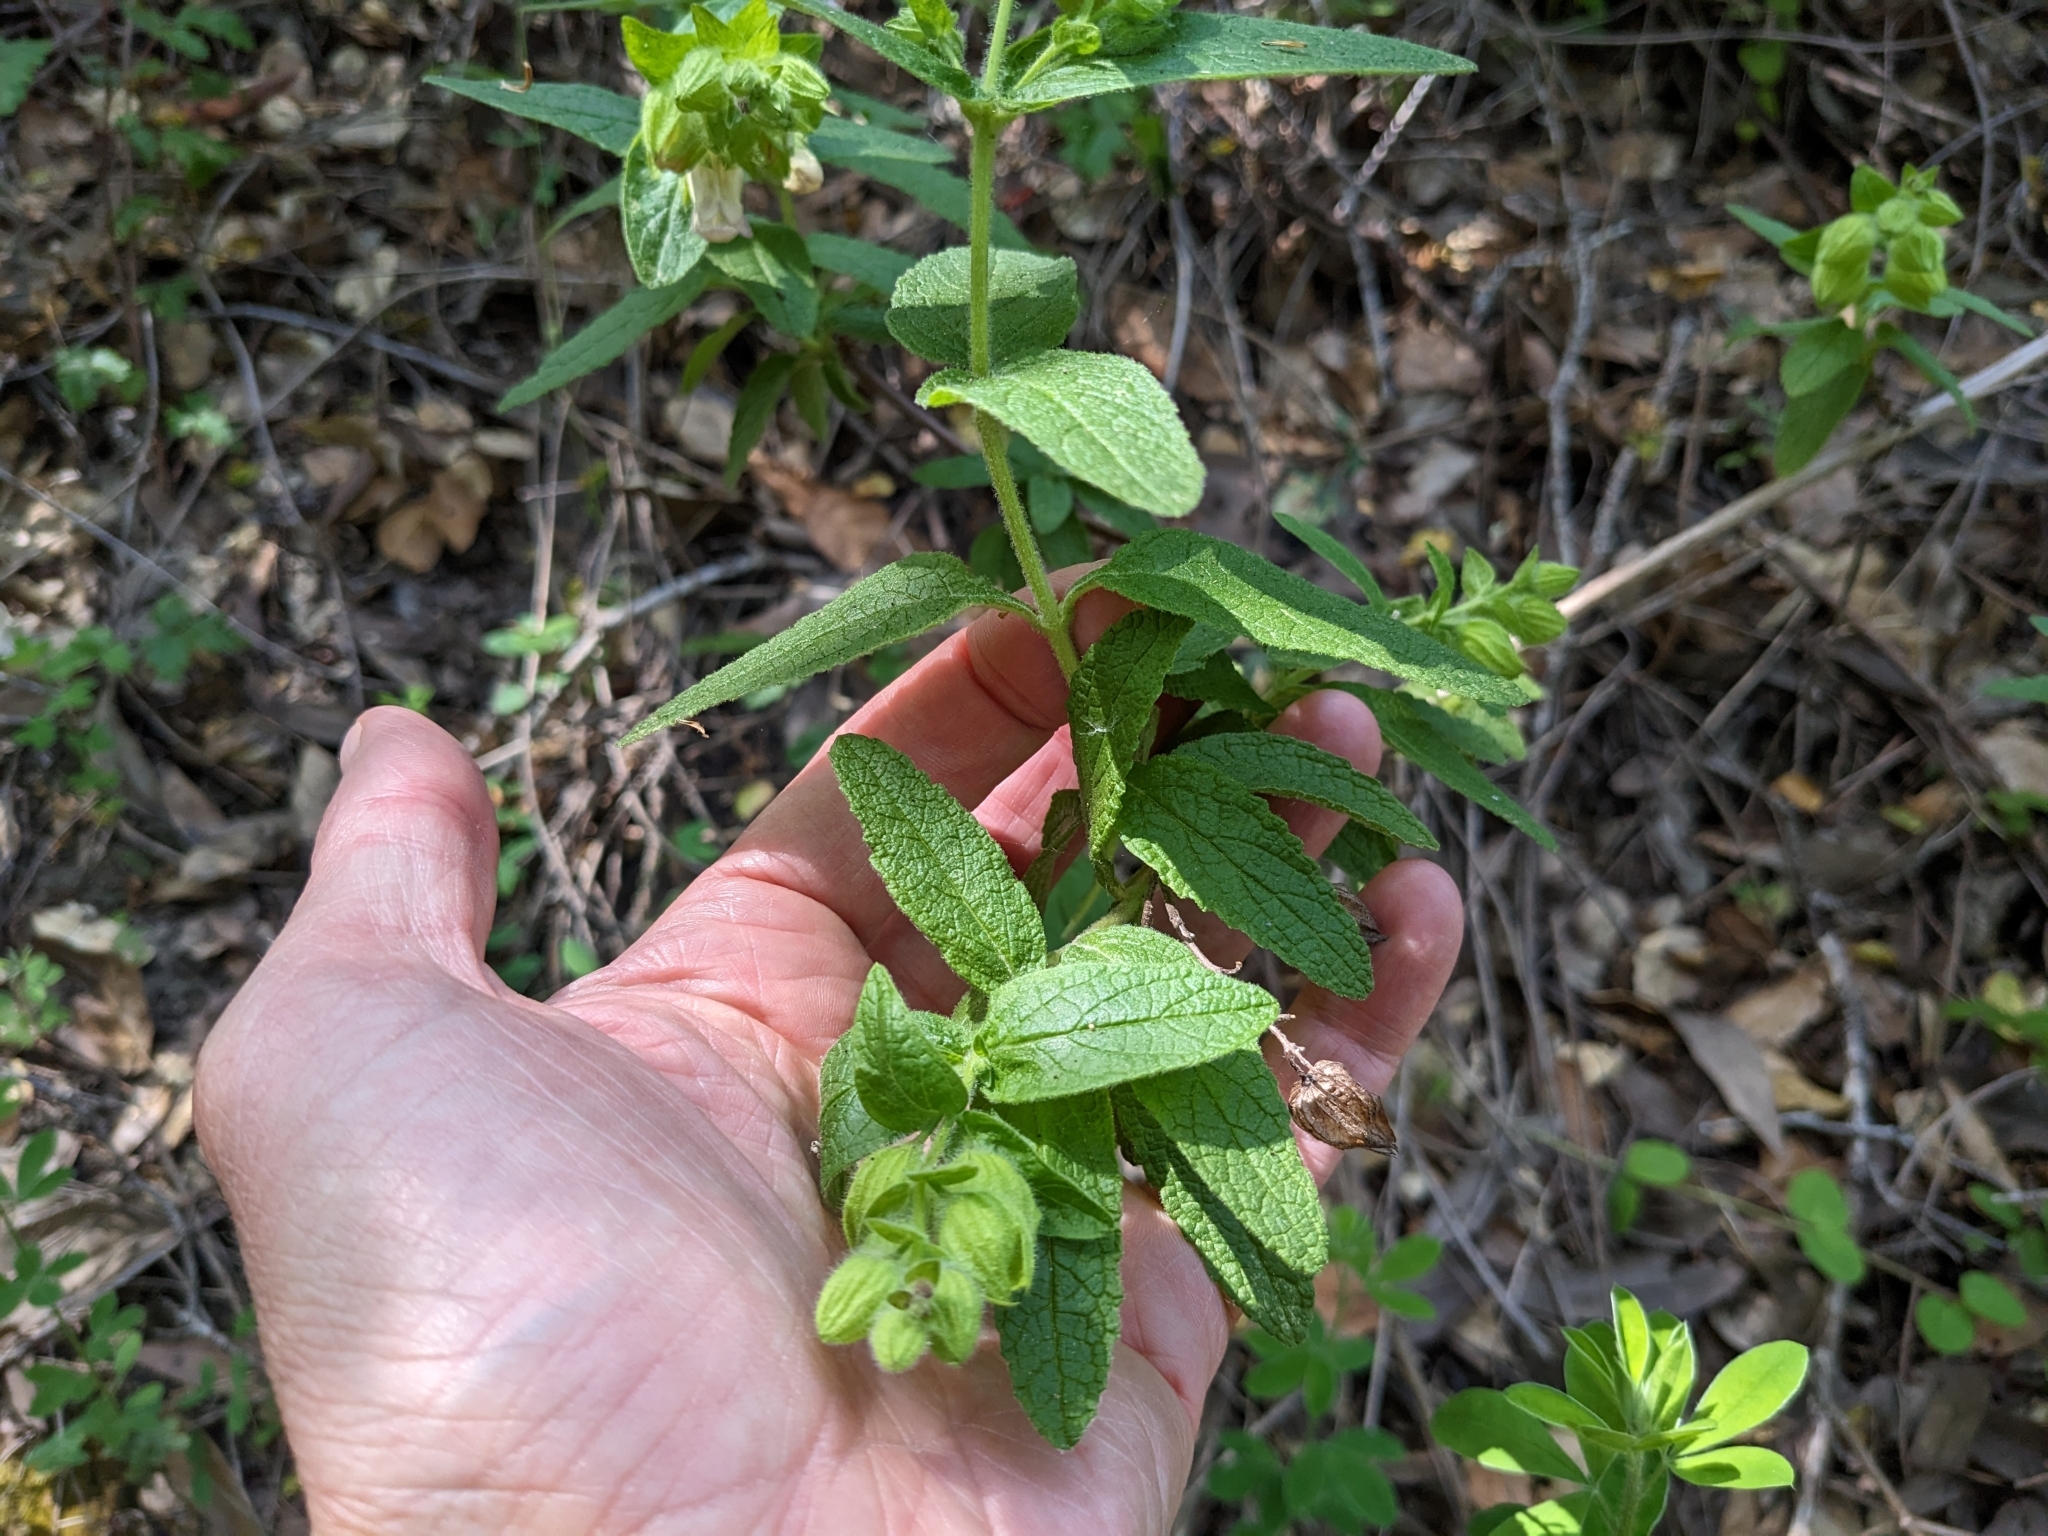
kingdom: Plantae
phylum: Tracheophyta
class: Magnoliopsida
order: Lamiales
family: Lamiaceae
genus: Lepechinia
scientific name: Lepechinia calycina
